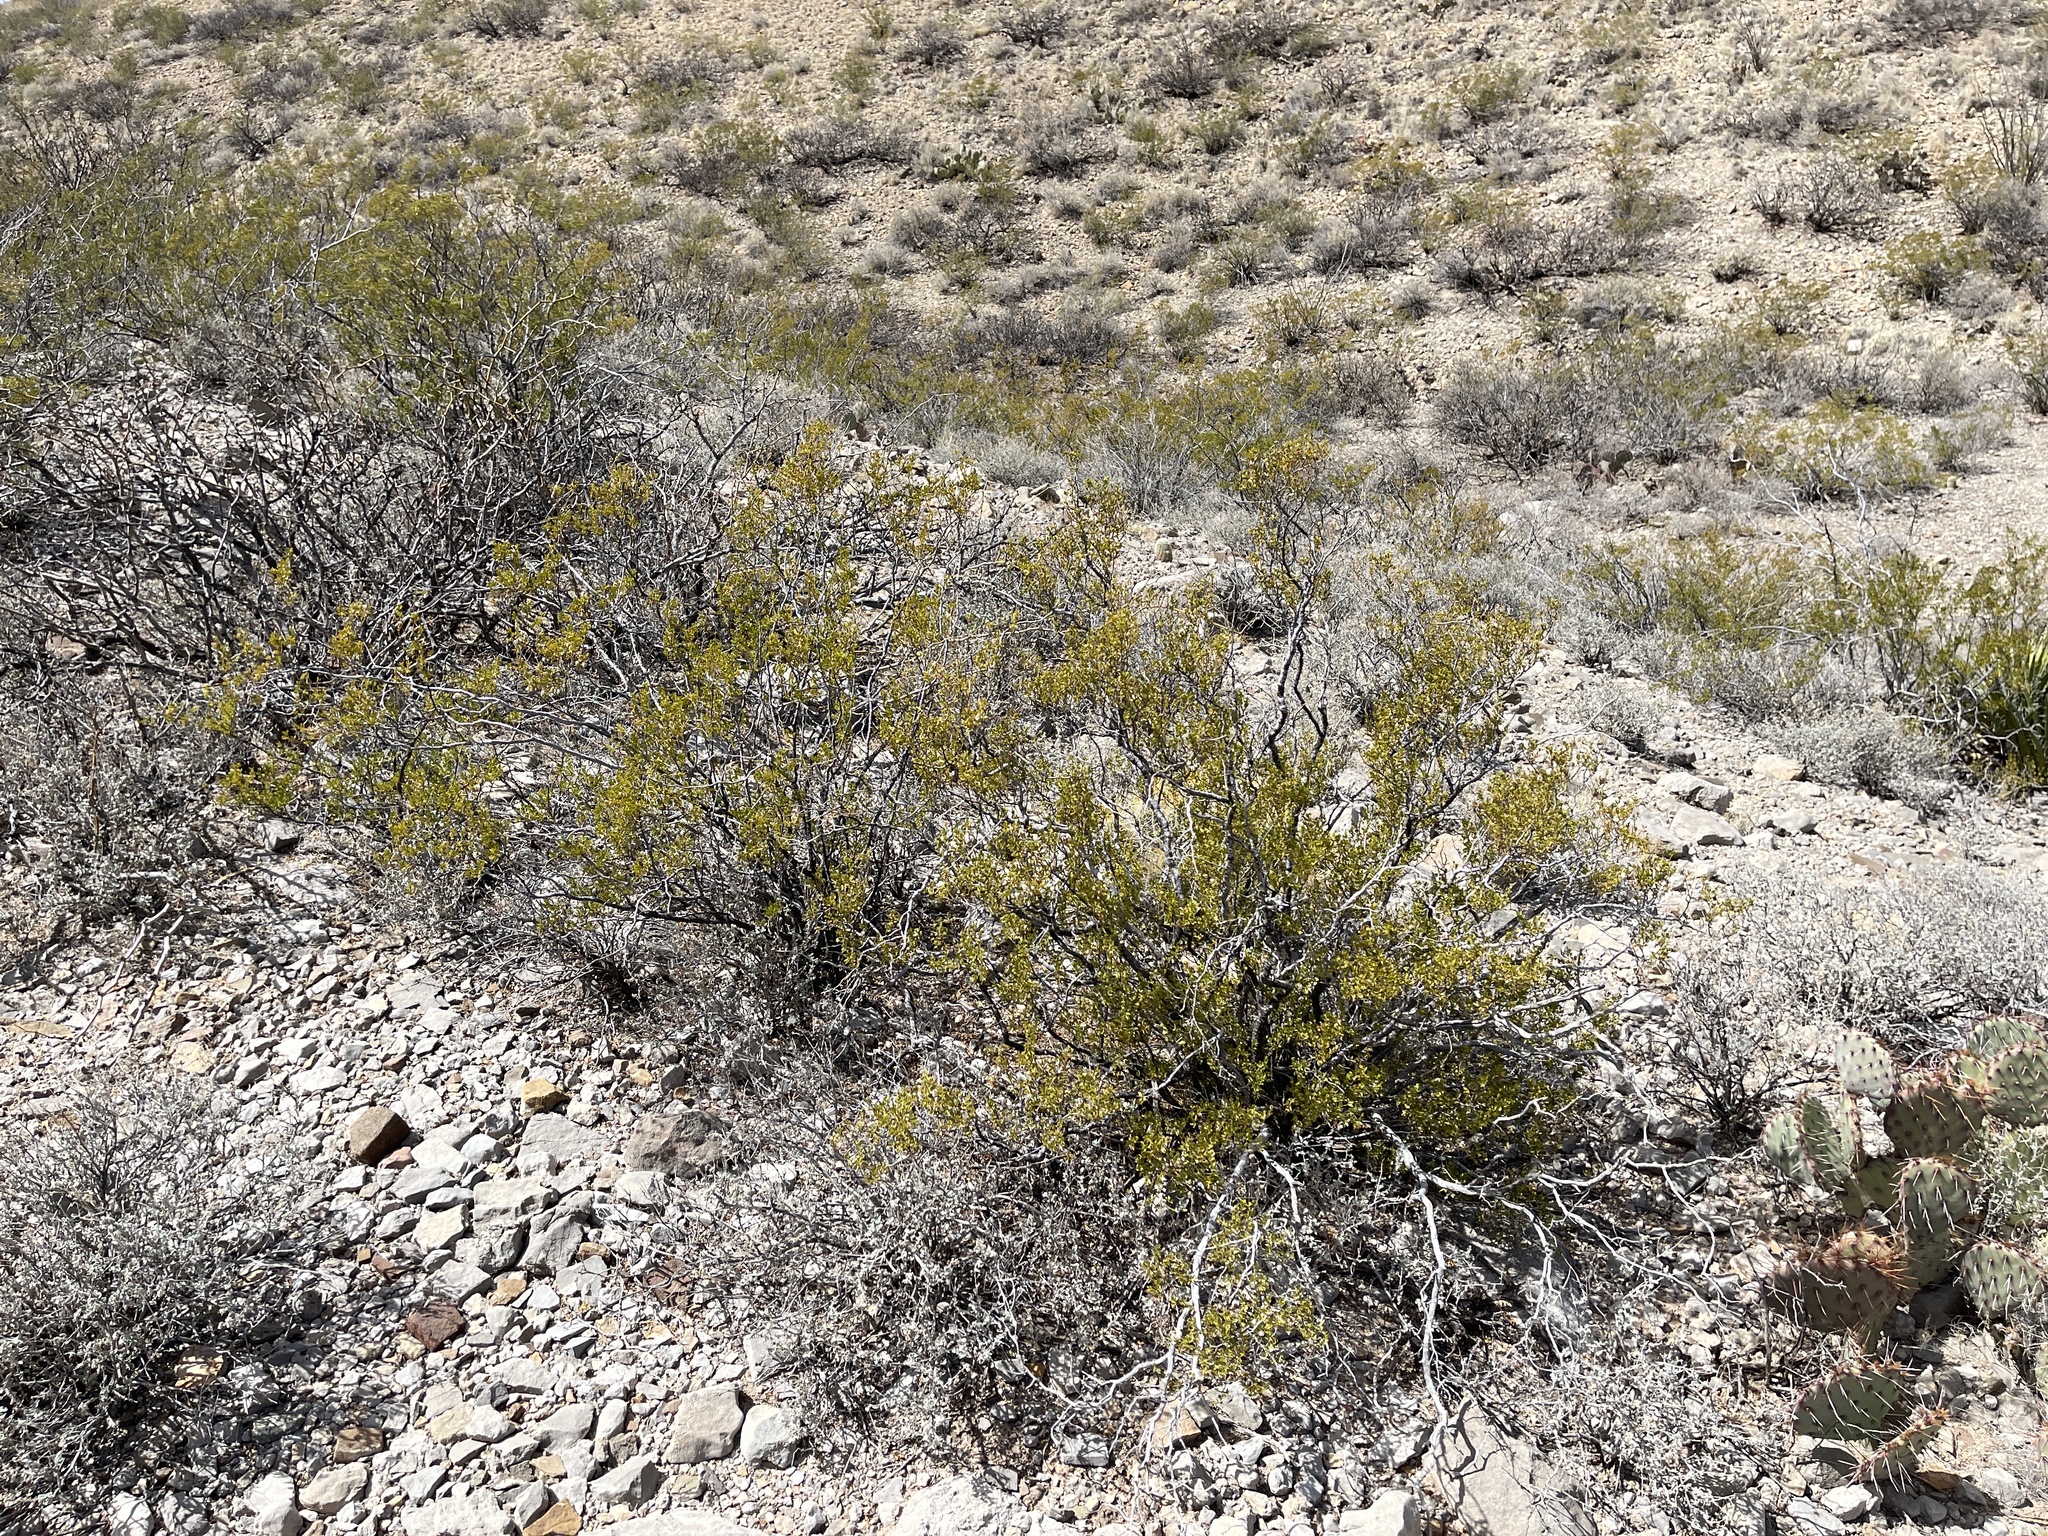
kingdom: Plantae
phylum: Tracheophyta
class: Magnoliopsida
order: Zygophyllales
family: Zygophyllaceae
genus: Larrea
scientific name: Larrea tridentata
